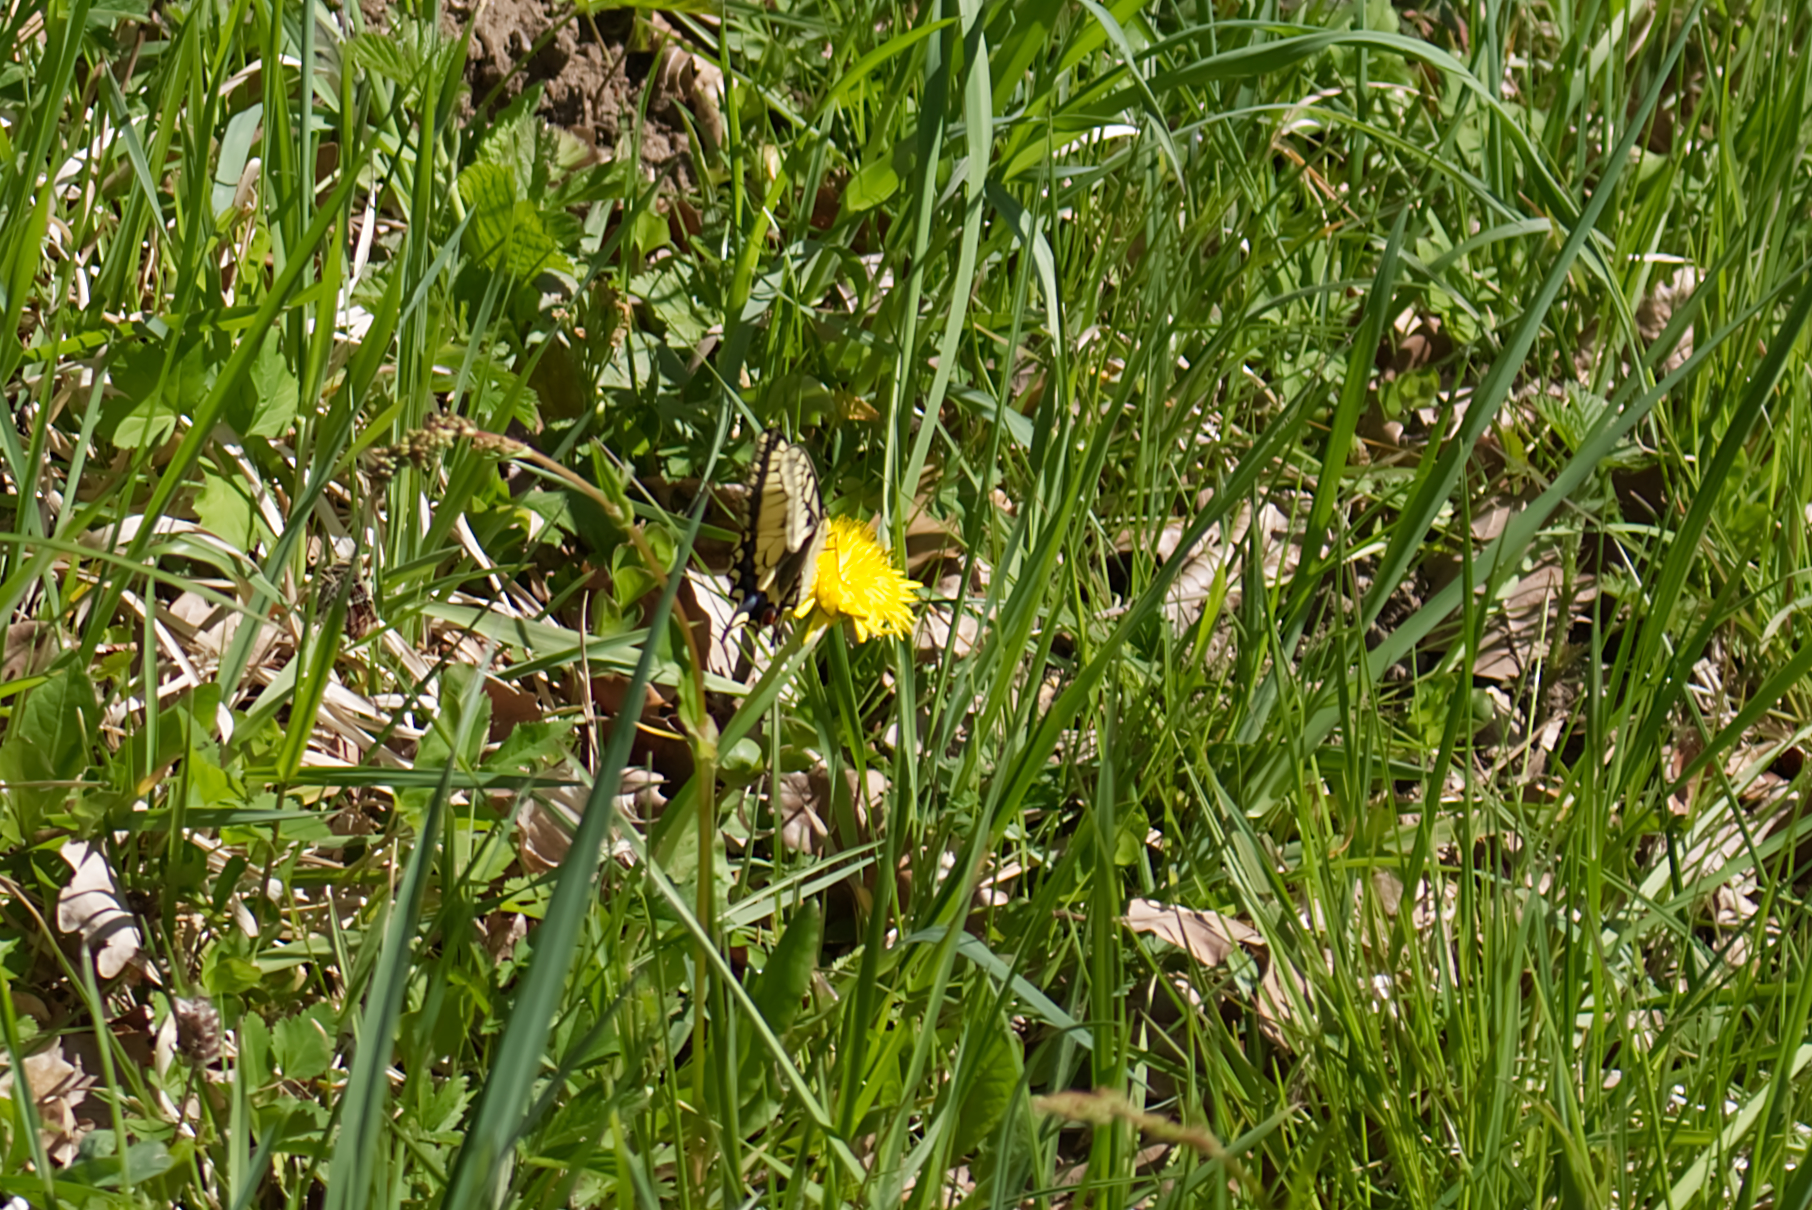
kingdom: Animalia
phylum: Arthropoda
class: Insecta
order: Lepidoptera
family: Papilionidae
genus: Papilio
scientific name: Papilio machaon
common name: Swallowtail
